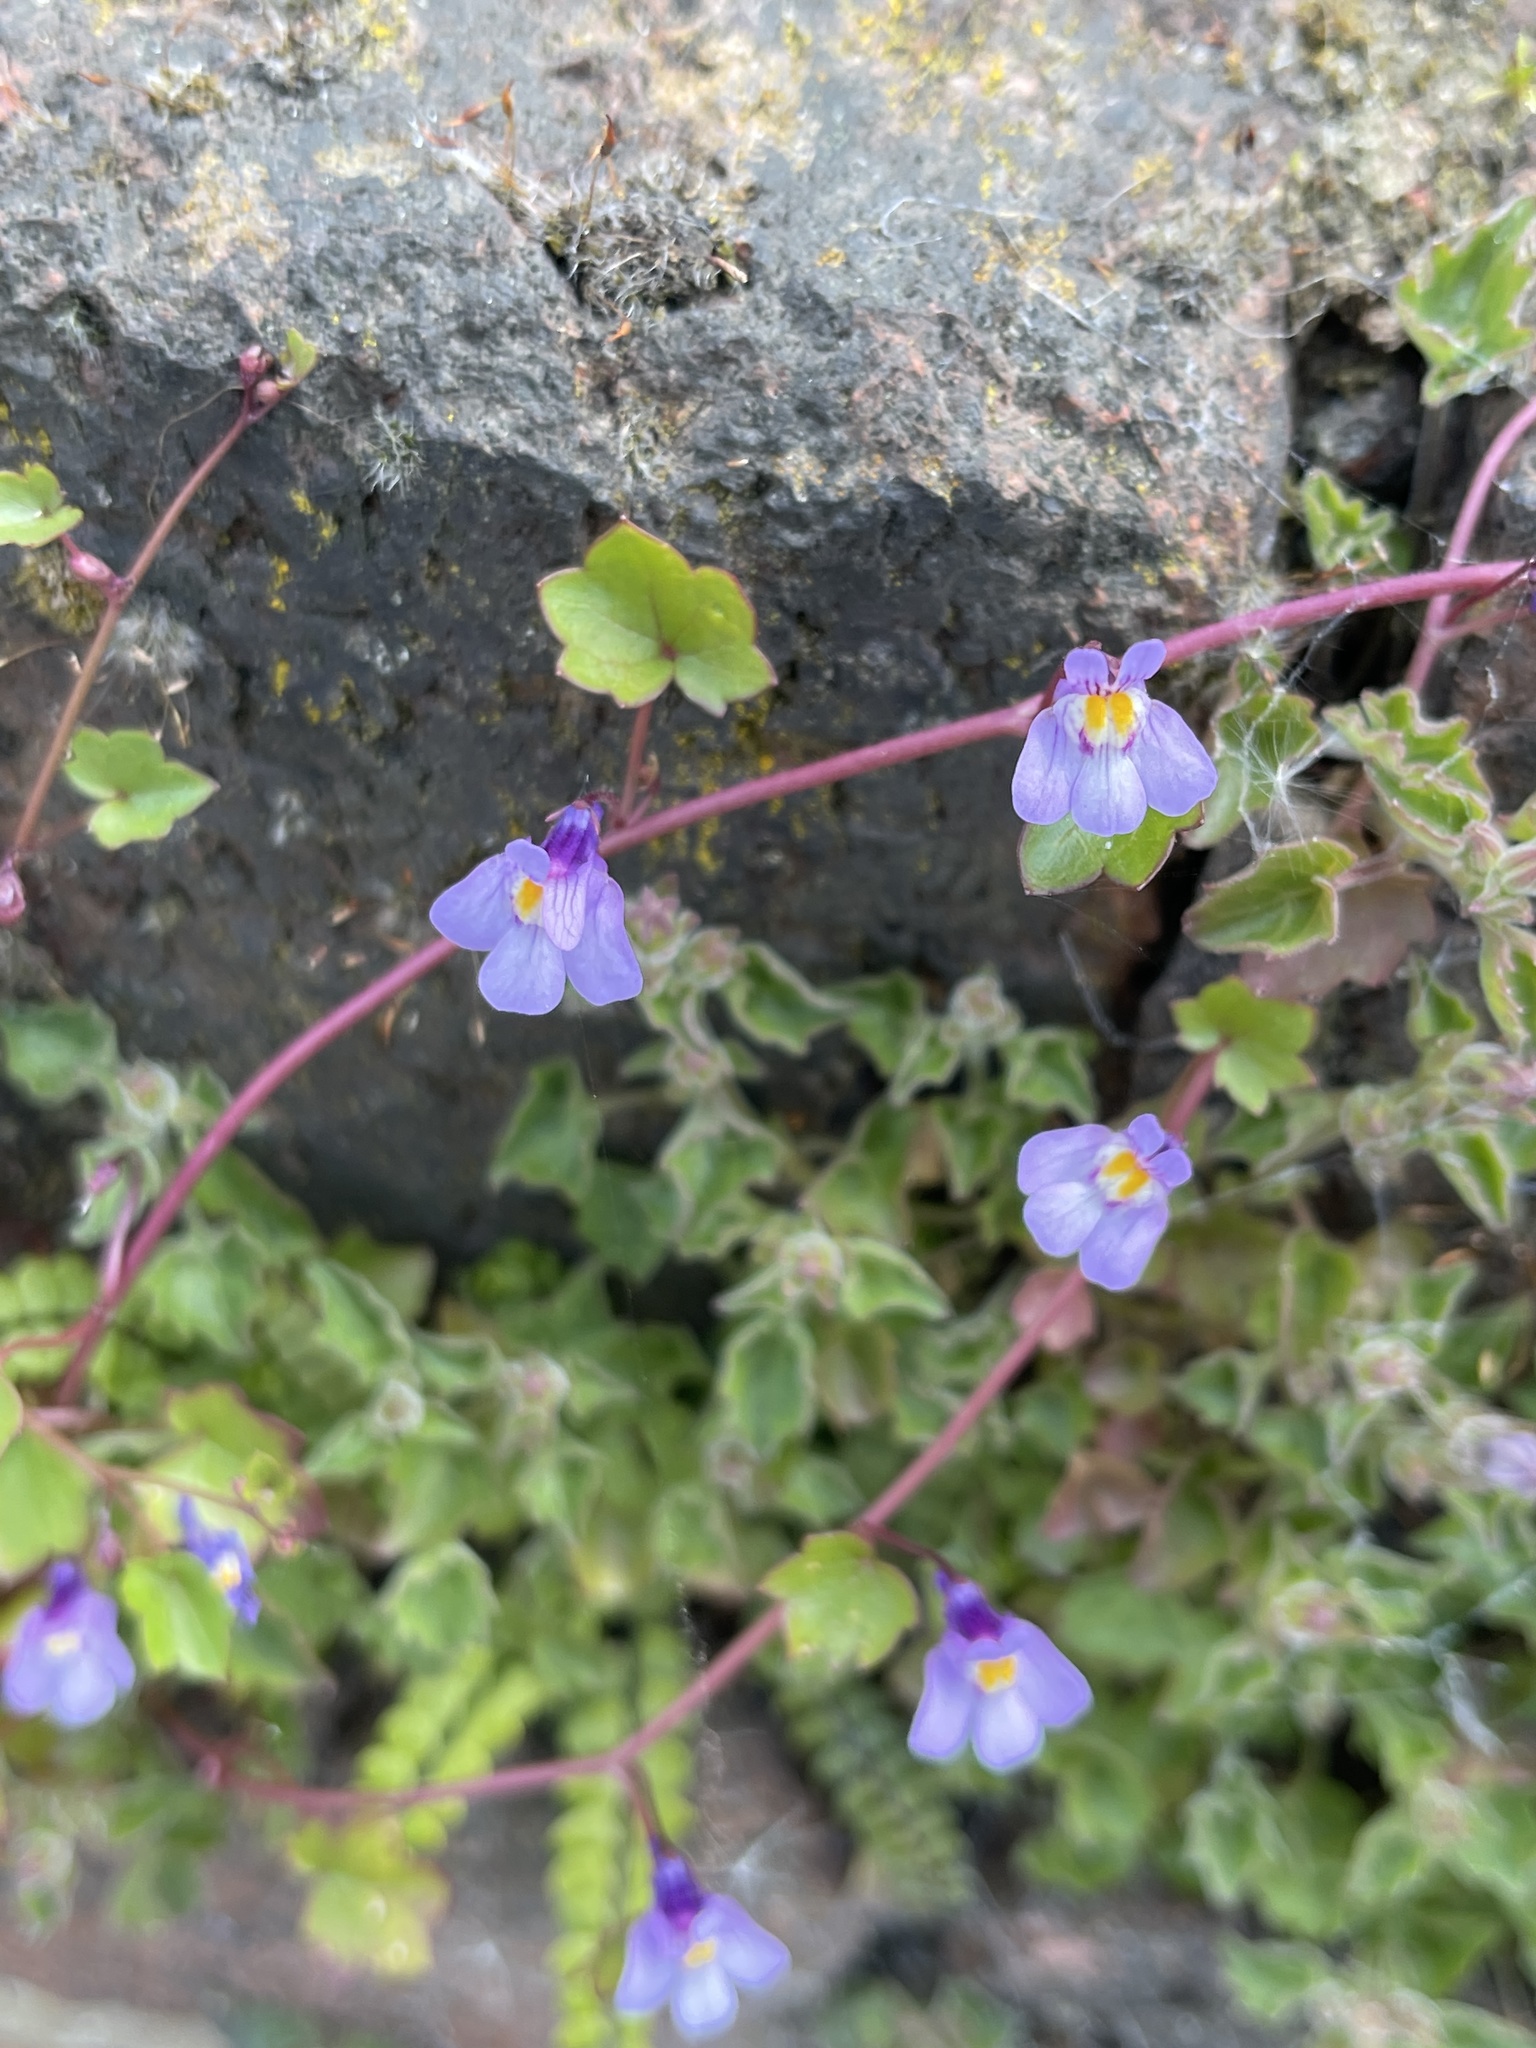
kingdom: Plantae
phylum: Tracheophyta
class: Magnoliopsida
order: Lamiales
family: Plantaginaceae
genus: Cymbalaria
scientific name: Cymbalaria muralis
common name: Ivy-leaved toadflax
